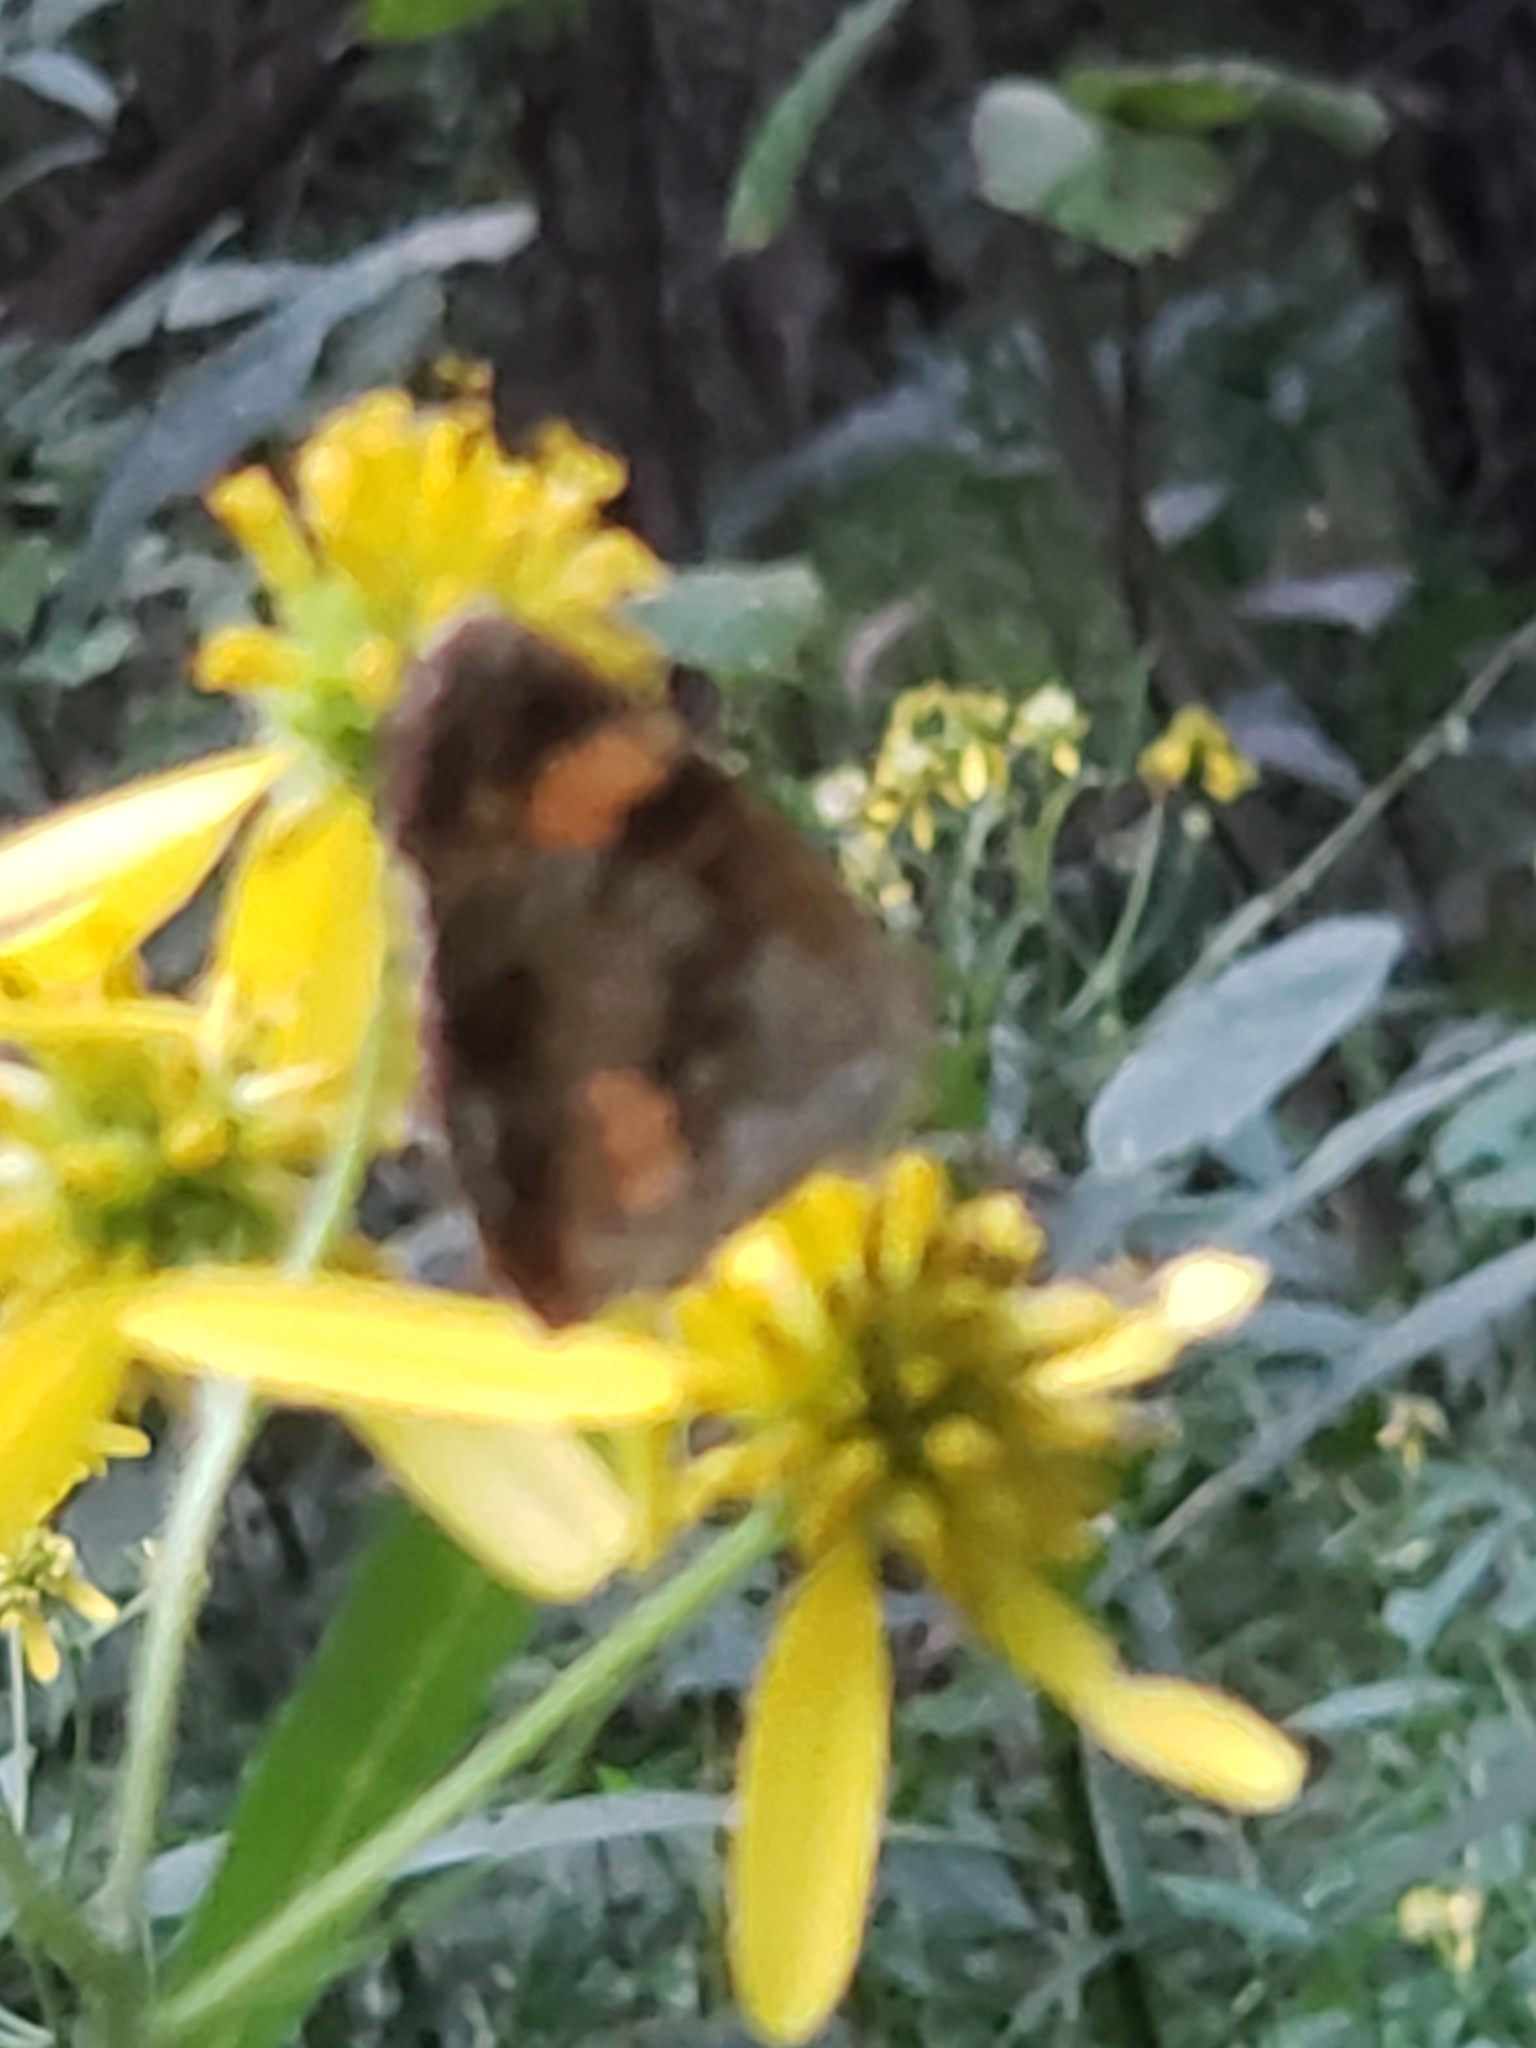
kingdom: Animalia
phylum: Arthropoda
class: Insecta
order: Lepidoptera
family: Nymphalidae
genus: Chlosyne
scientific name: Chlosyne nycteis
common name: Silvery checkerspot
